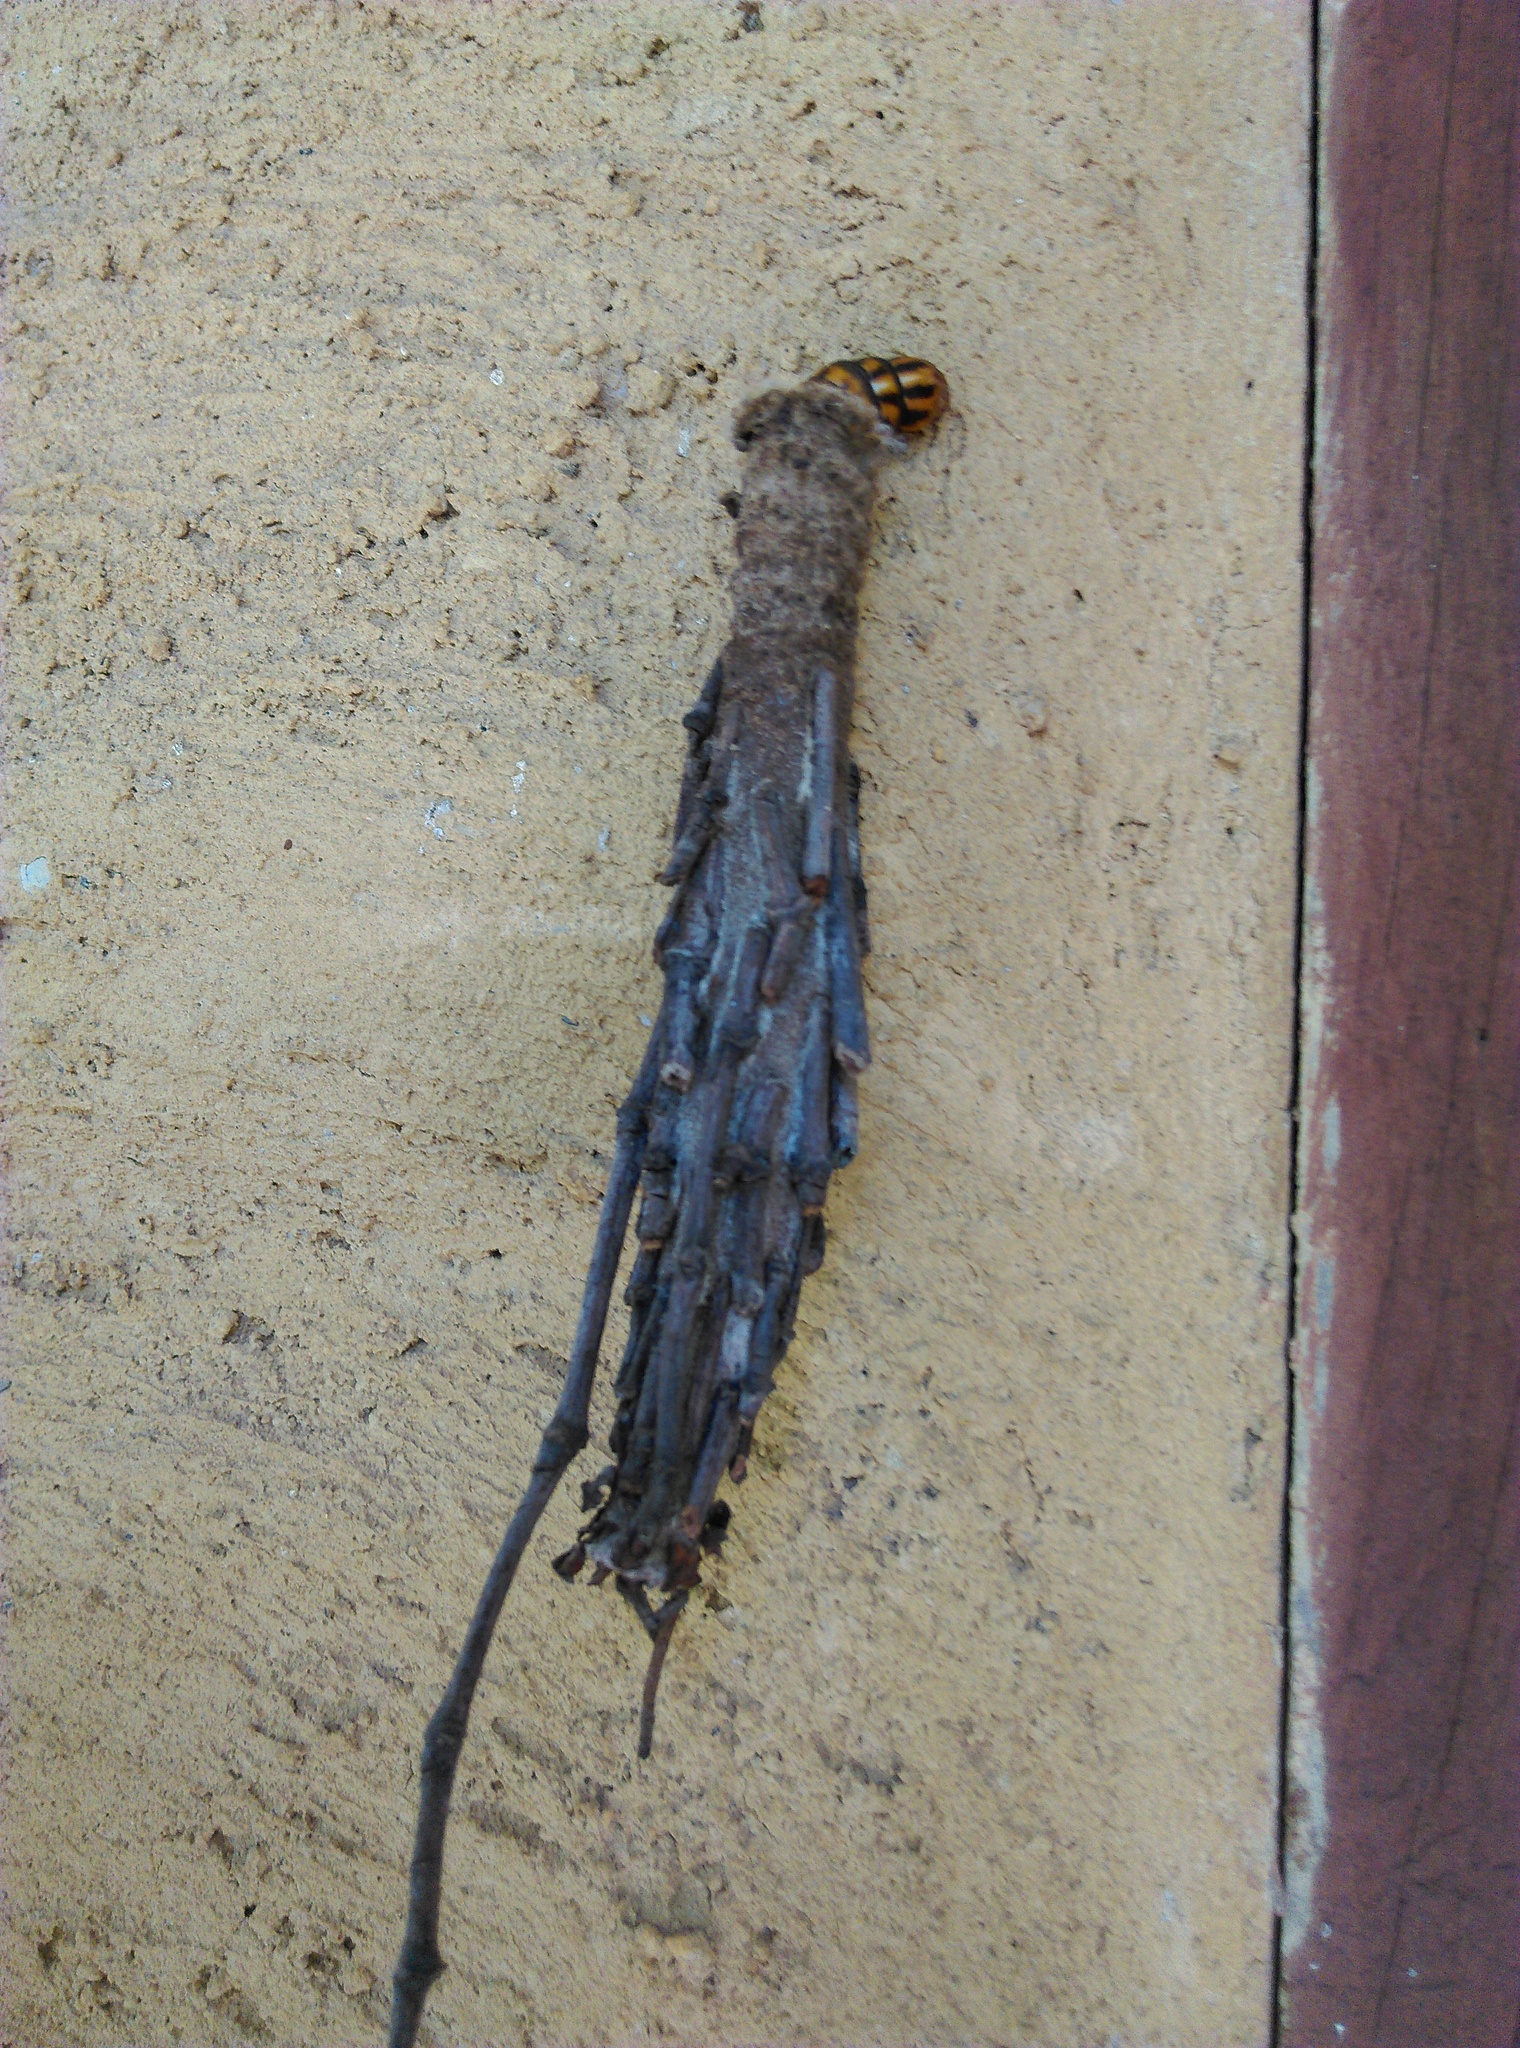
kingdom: Animalia
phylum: Arthropoda
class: Insecta
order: Lepidoptera
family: Psychidae
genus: Metura
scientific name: Metura elongatus
